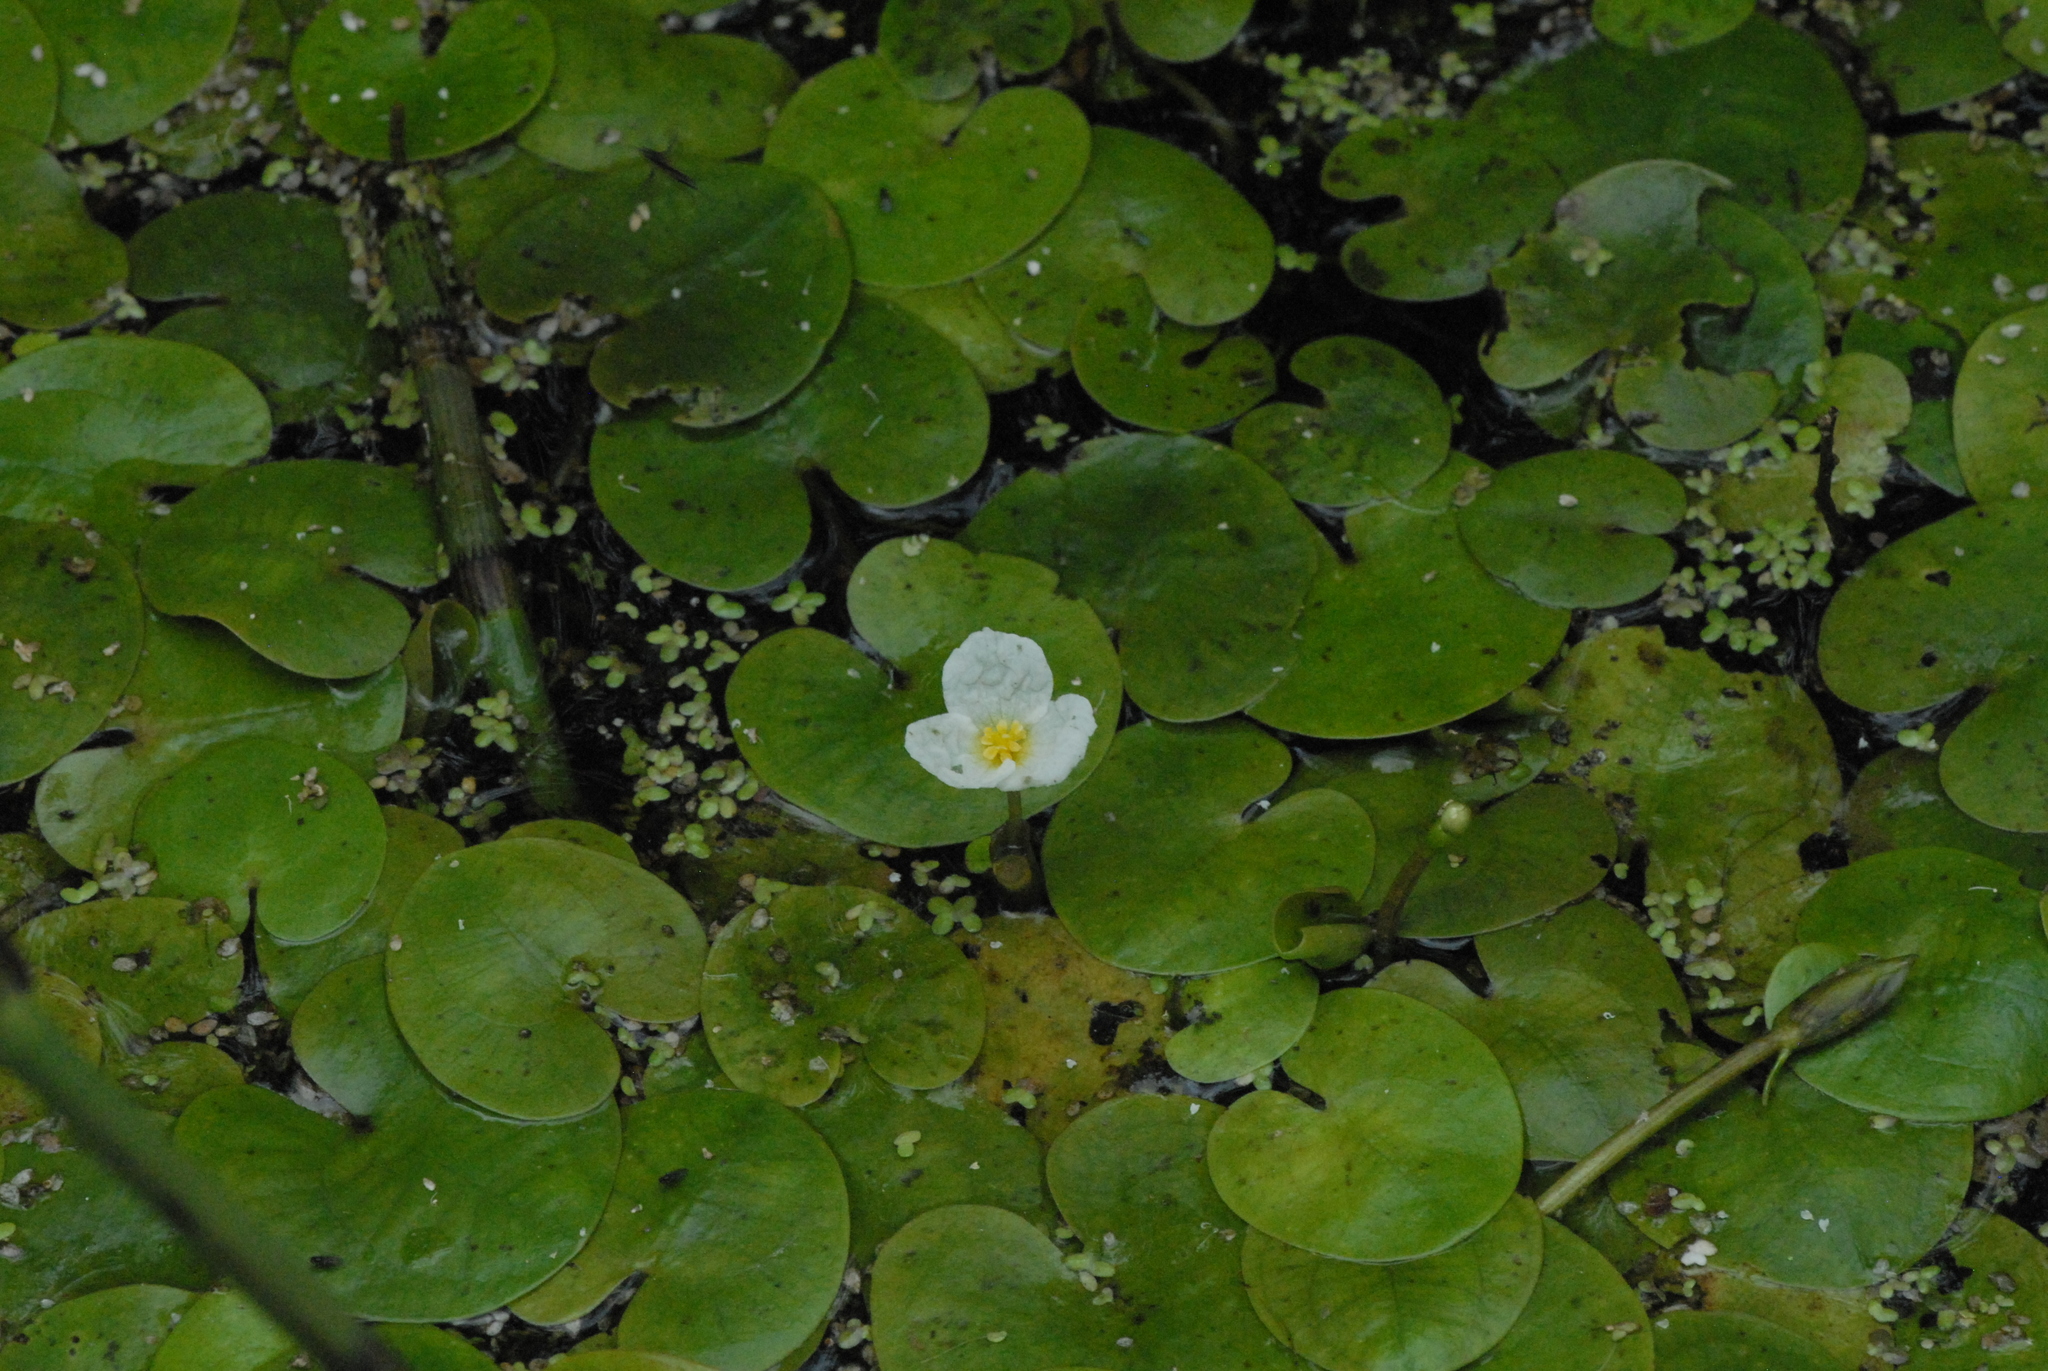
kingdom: Plantae
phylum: Tracheophyta
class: Liliopsida
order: Alismatales
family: Hydrocharitaceae
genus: Hydrocharis
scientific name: Hydrocharis morsus-ranae
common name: Frogbit
